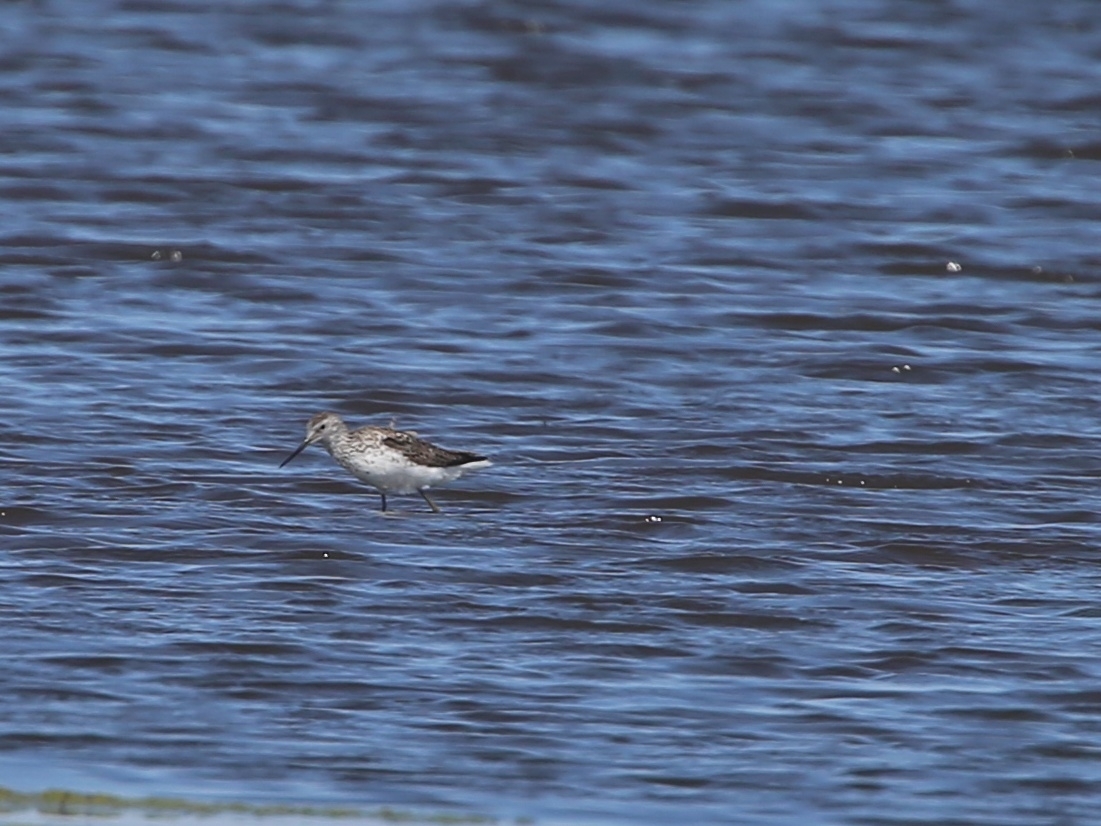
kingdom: Animalia
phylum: Chordata
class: Aves
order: Charadriiformes
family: Scolopacidae
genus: Tringa
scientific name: Tringa stagnatilis
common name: Marsh sandpiper
